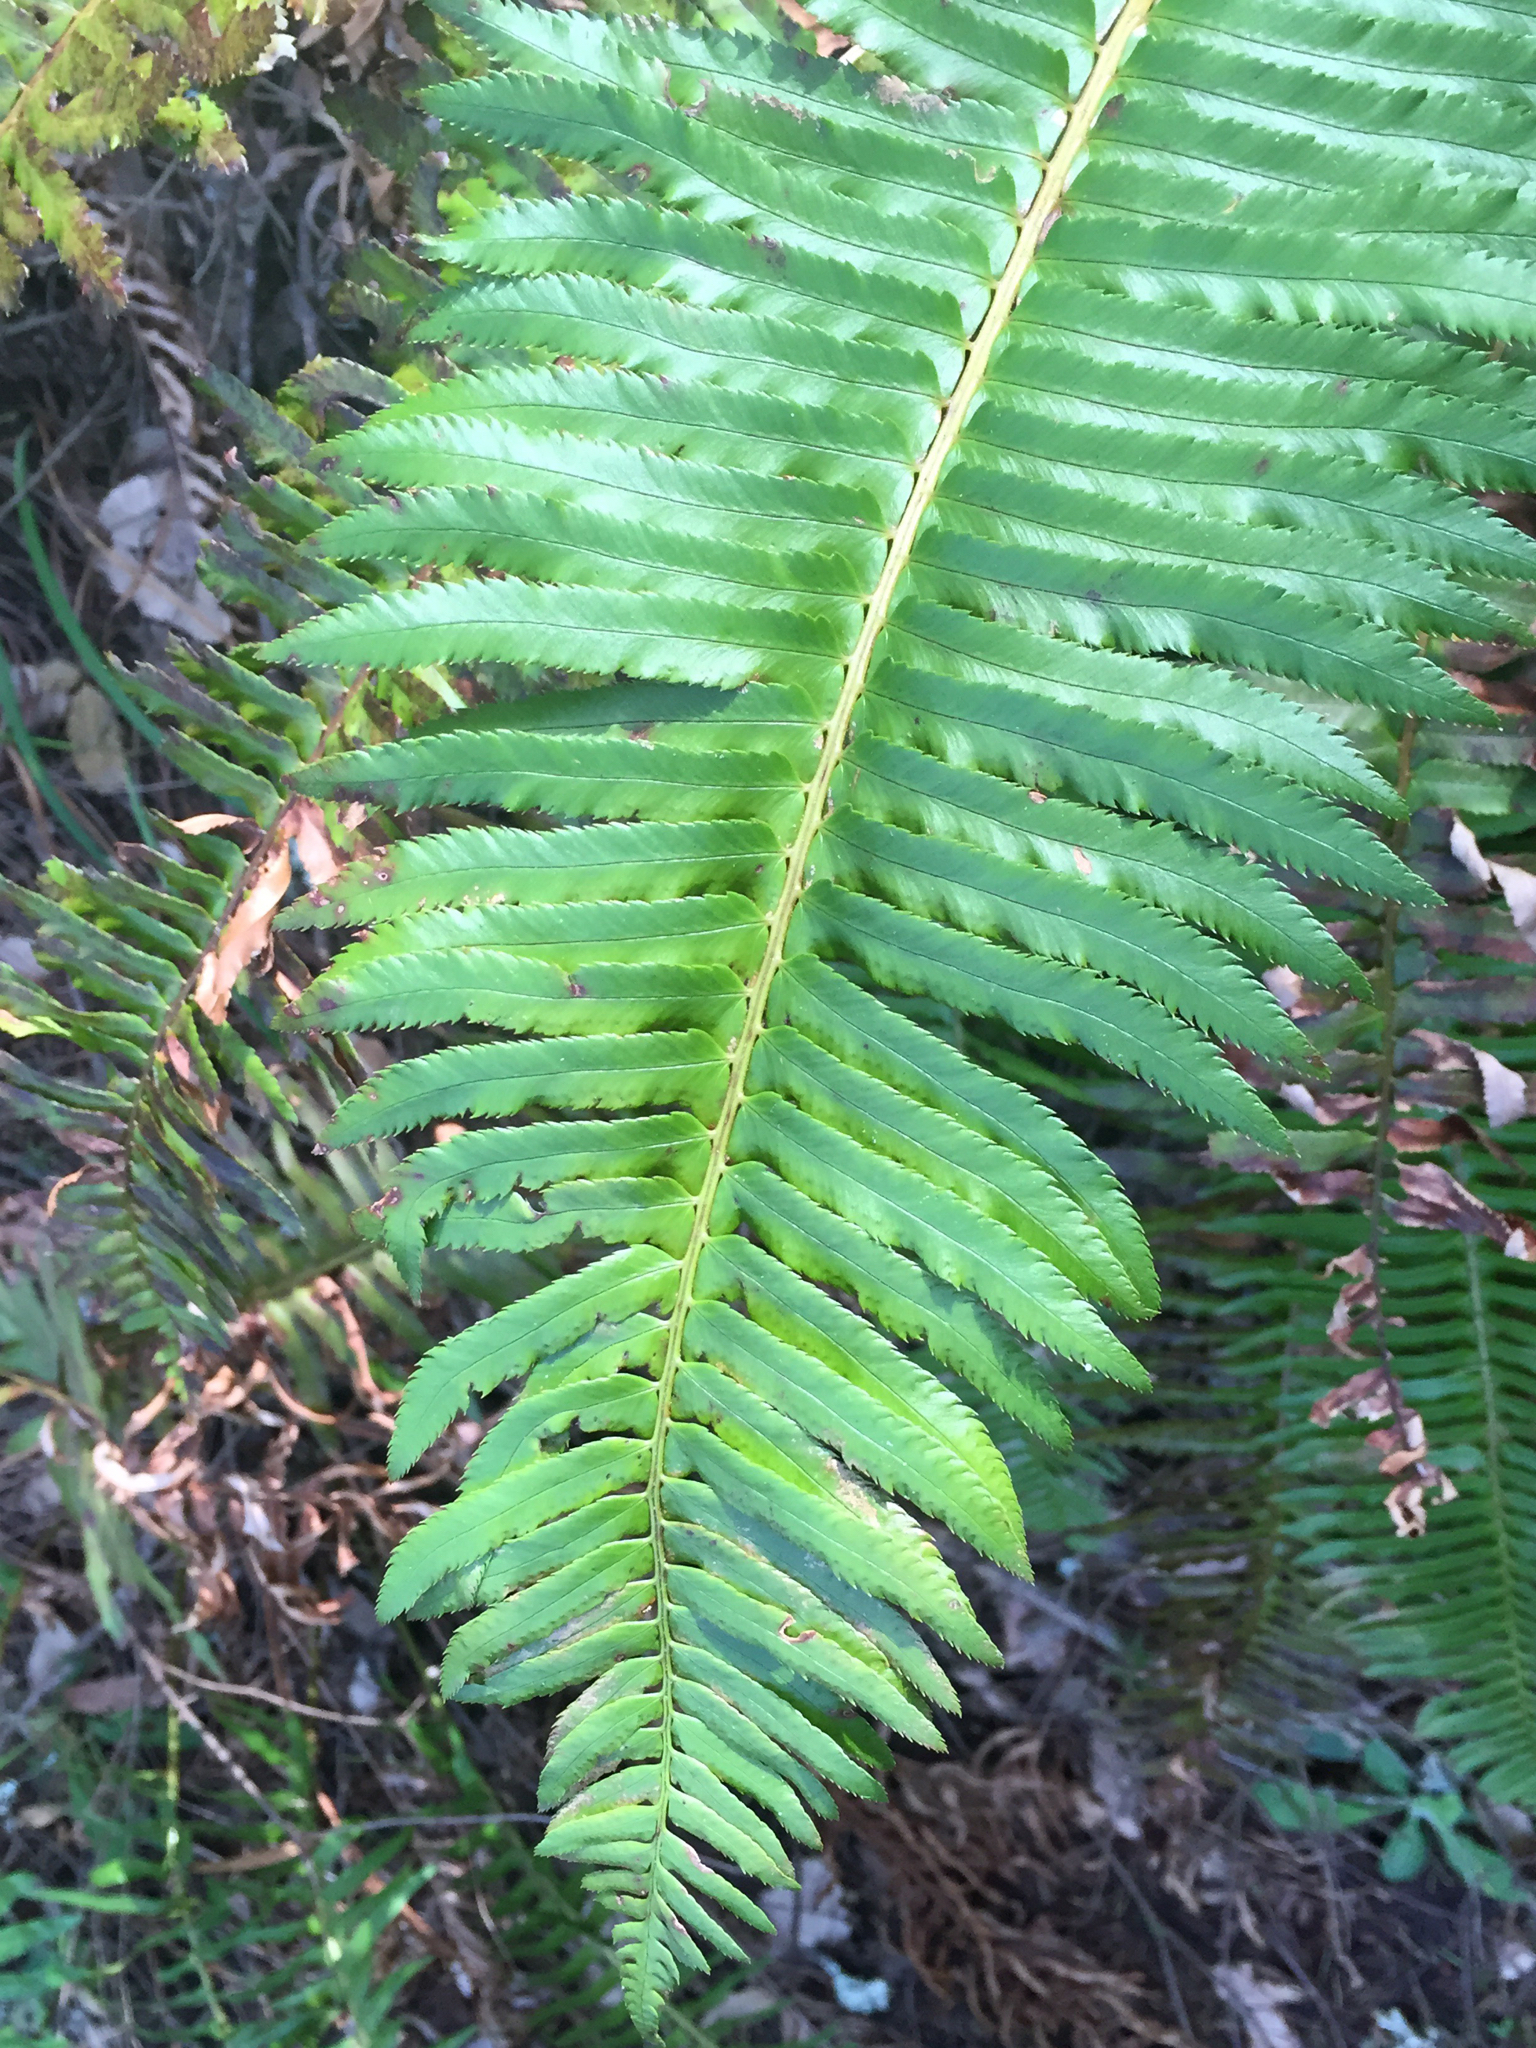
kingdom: Plantae
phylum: Tracheophyta
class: Polypodiopsida
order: Polypodiales
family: Dryopteridaceae
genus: Polystichum
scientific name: Polystichum munitum
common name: Western sword-fern
